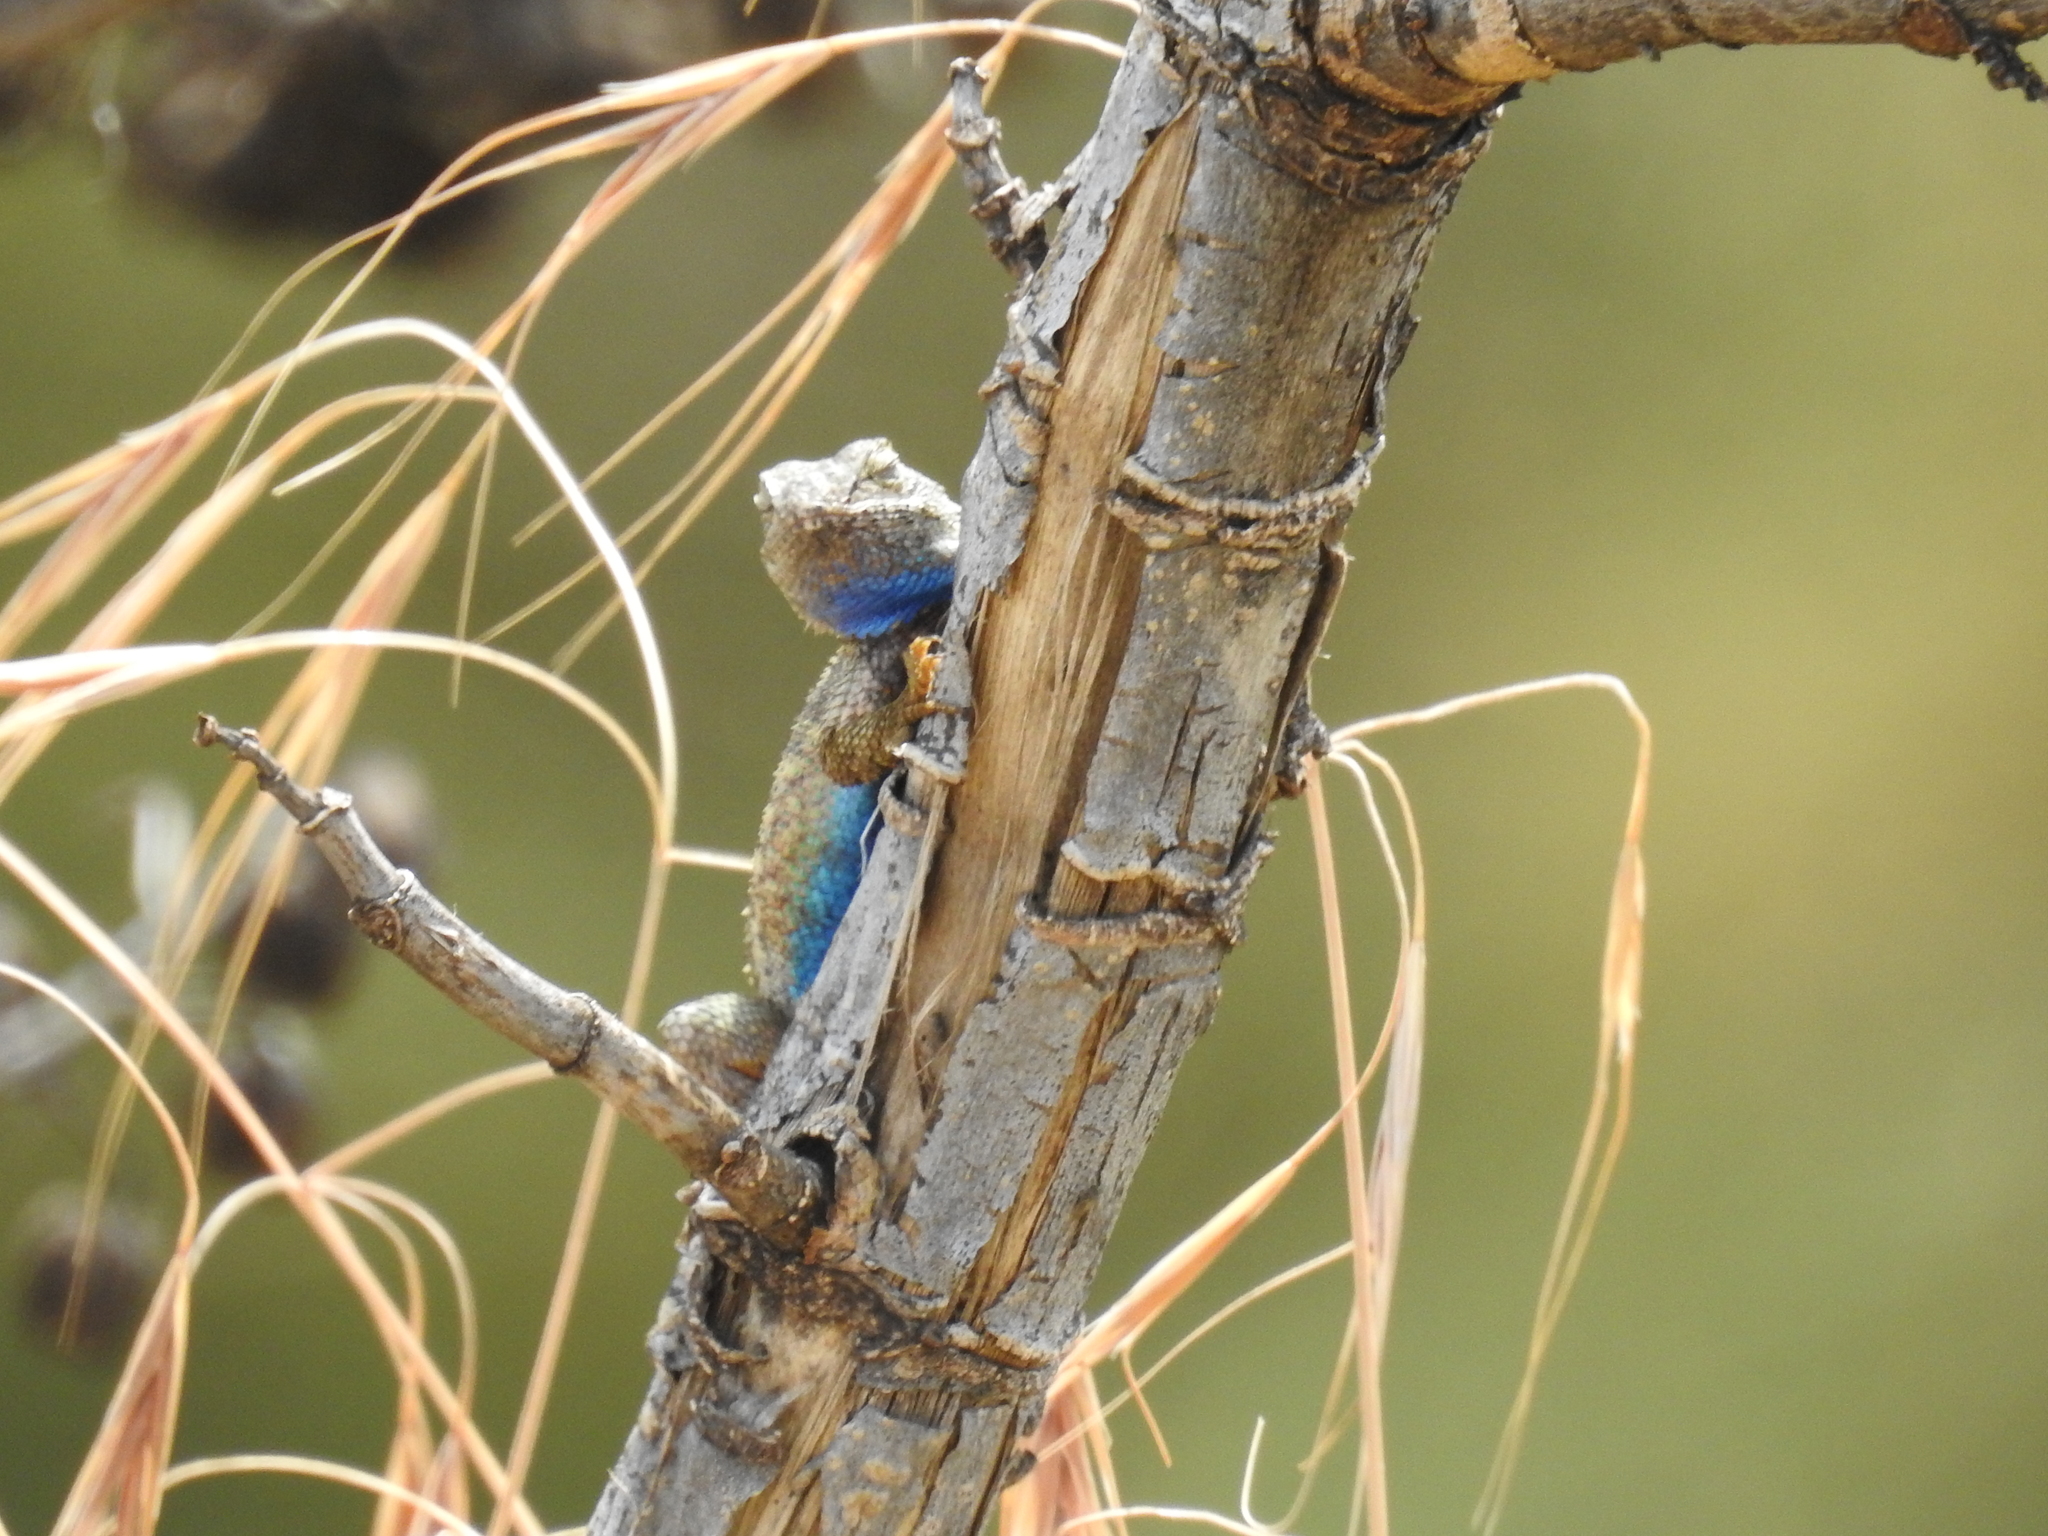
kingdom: Animalia
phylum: Chordata
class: Squamata
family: Phrynosomatidae
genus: Sceloporus
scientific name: Sceloporus occidentalis
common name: Western fence lizard
